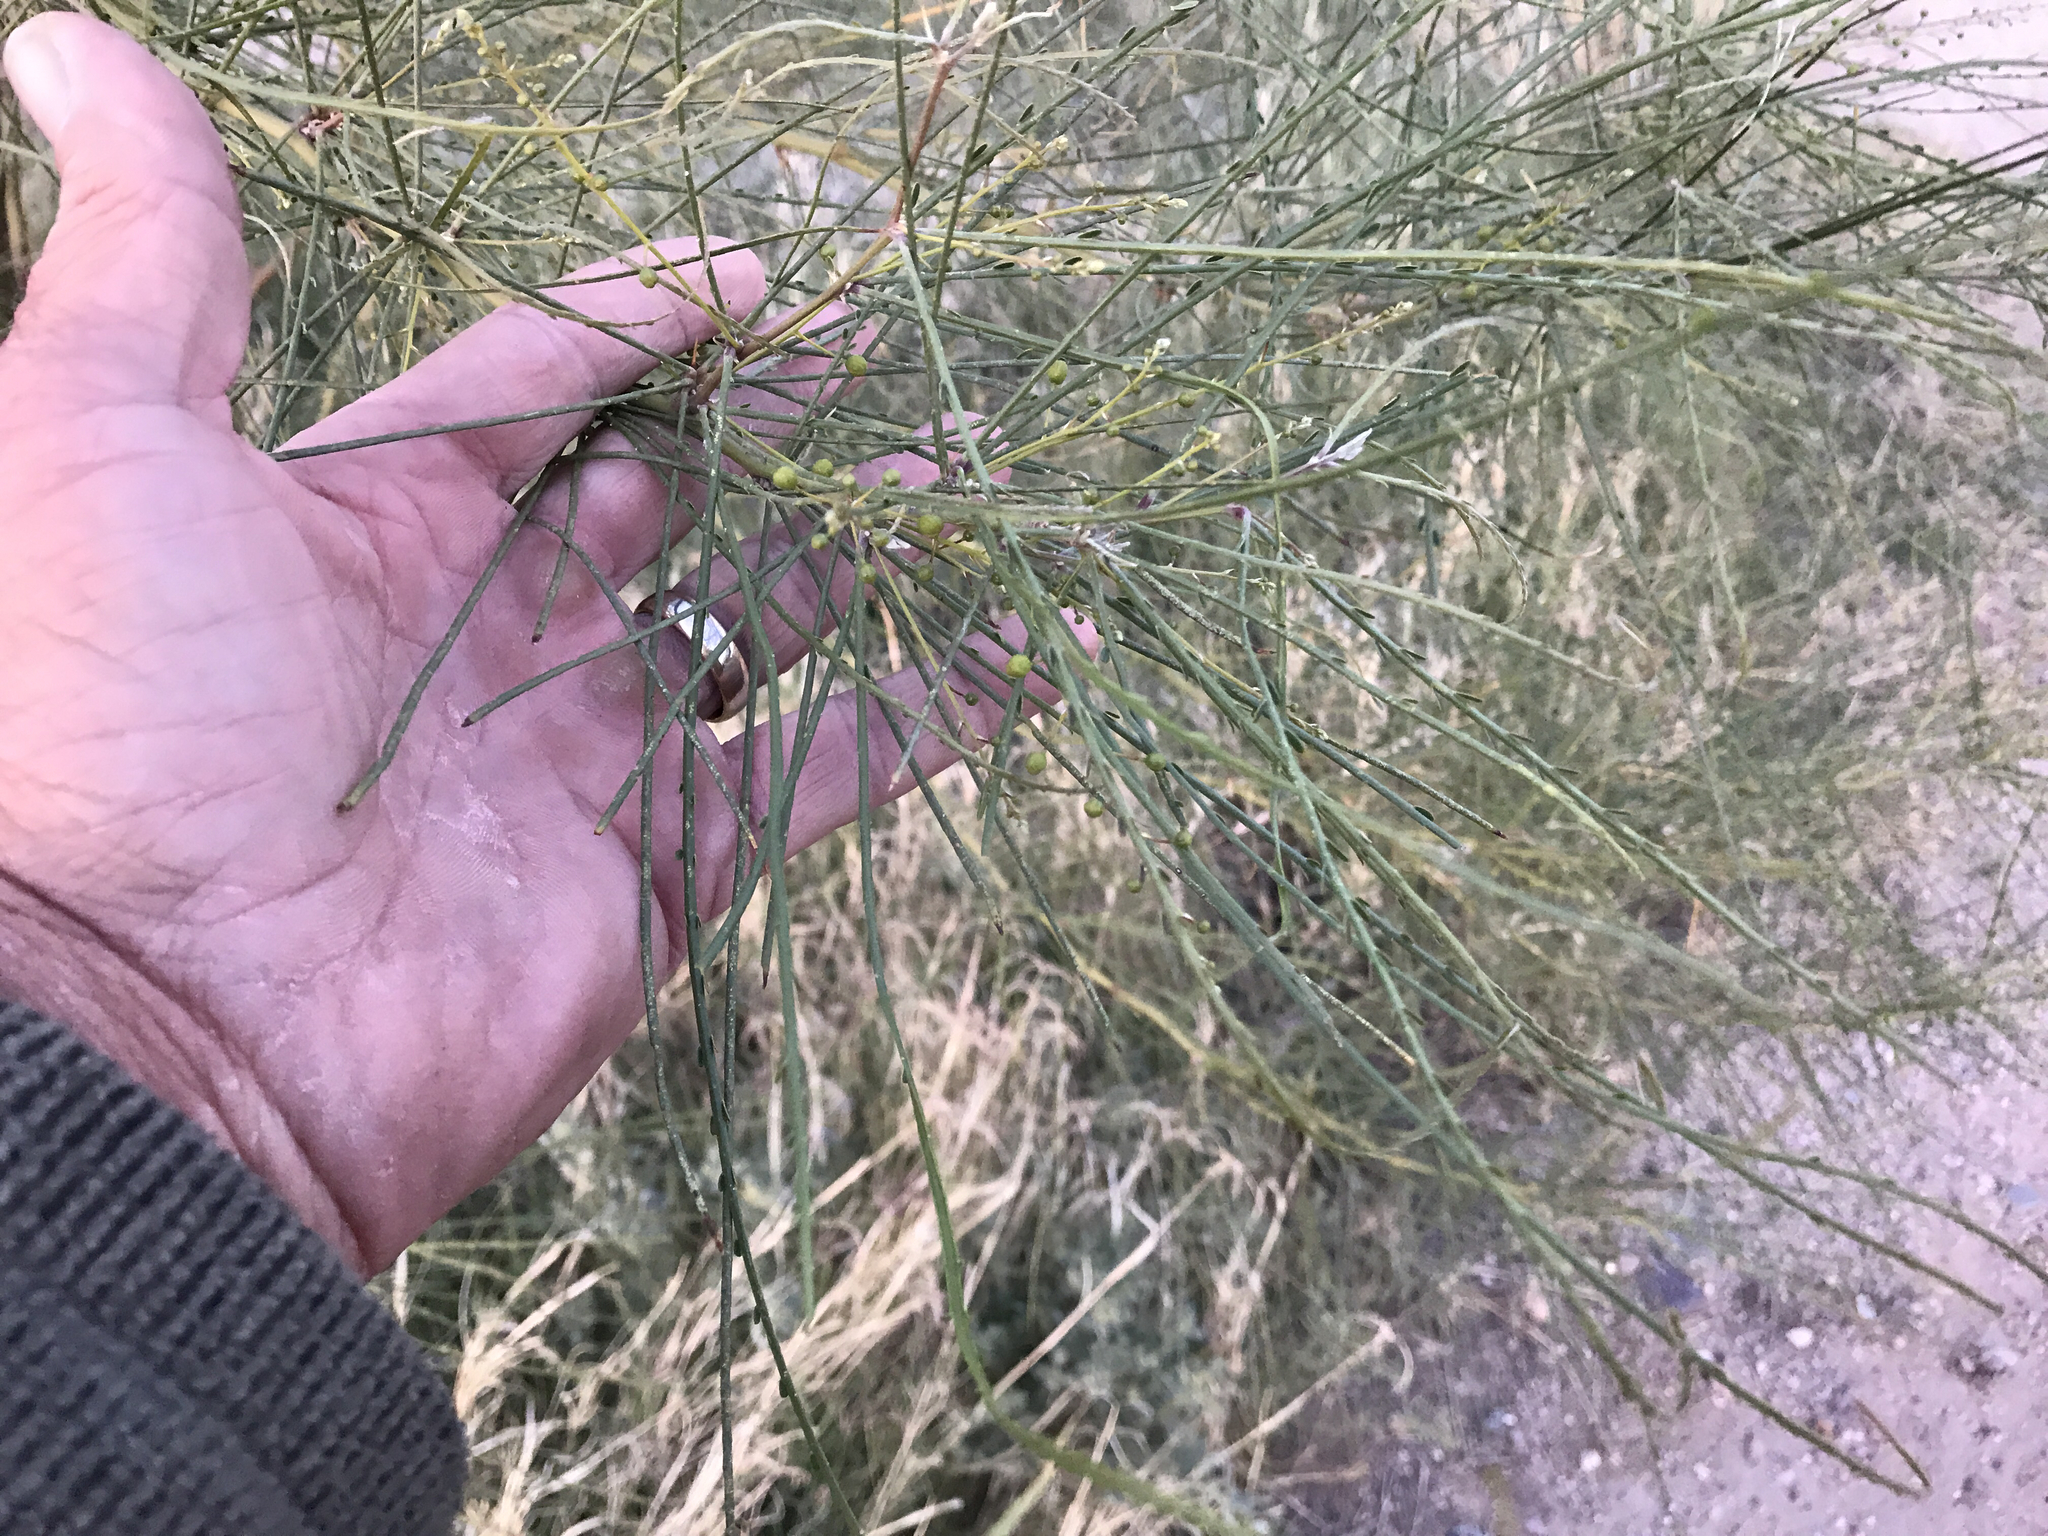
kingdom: Plantae
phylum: Tracheophyta
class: Magnoliopsida
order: Fabales
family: Fabaceae
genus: Parkinsonia
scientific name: Parkinsonia aculeata
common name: Jerusalem thorn
